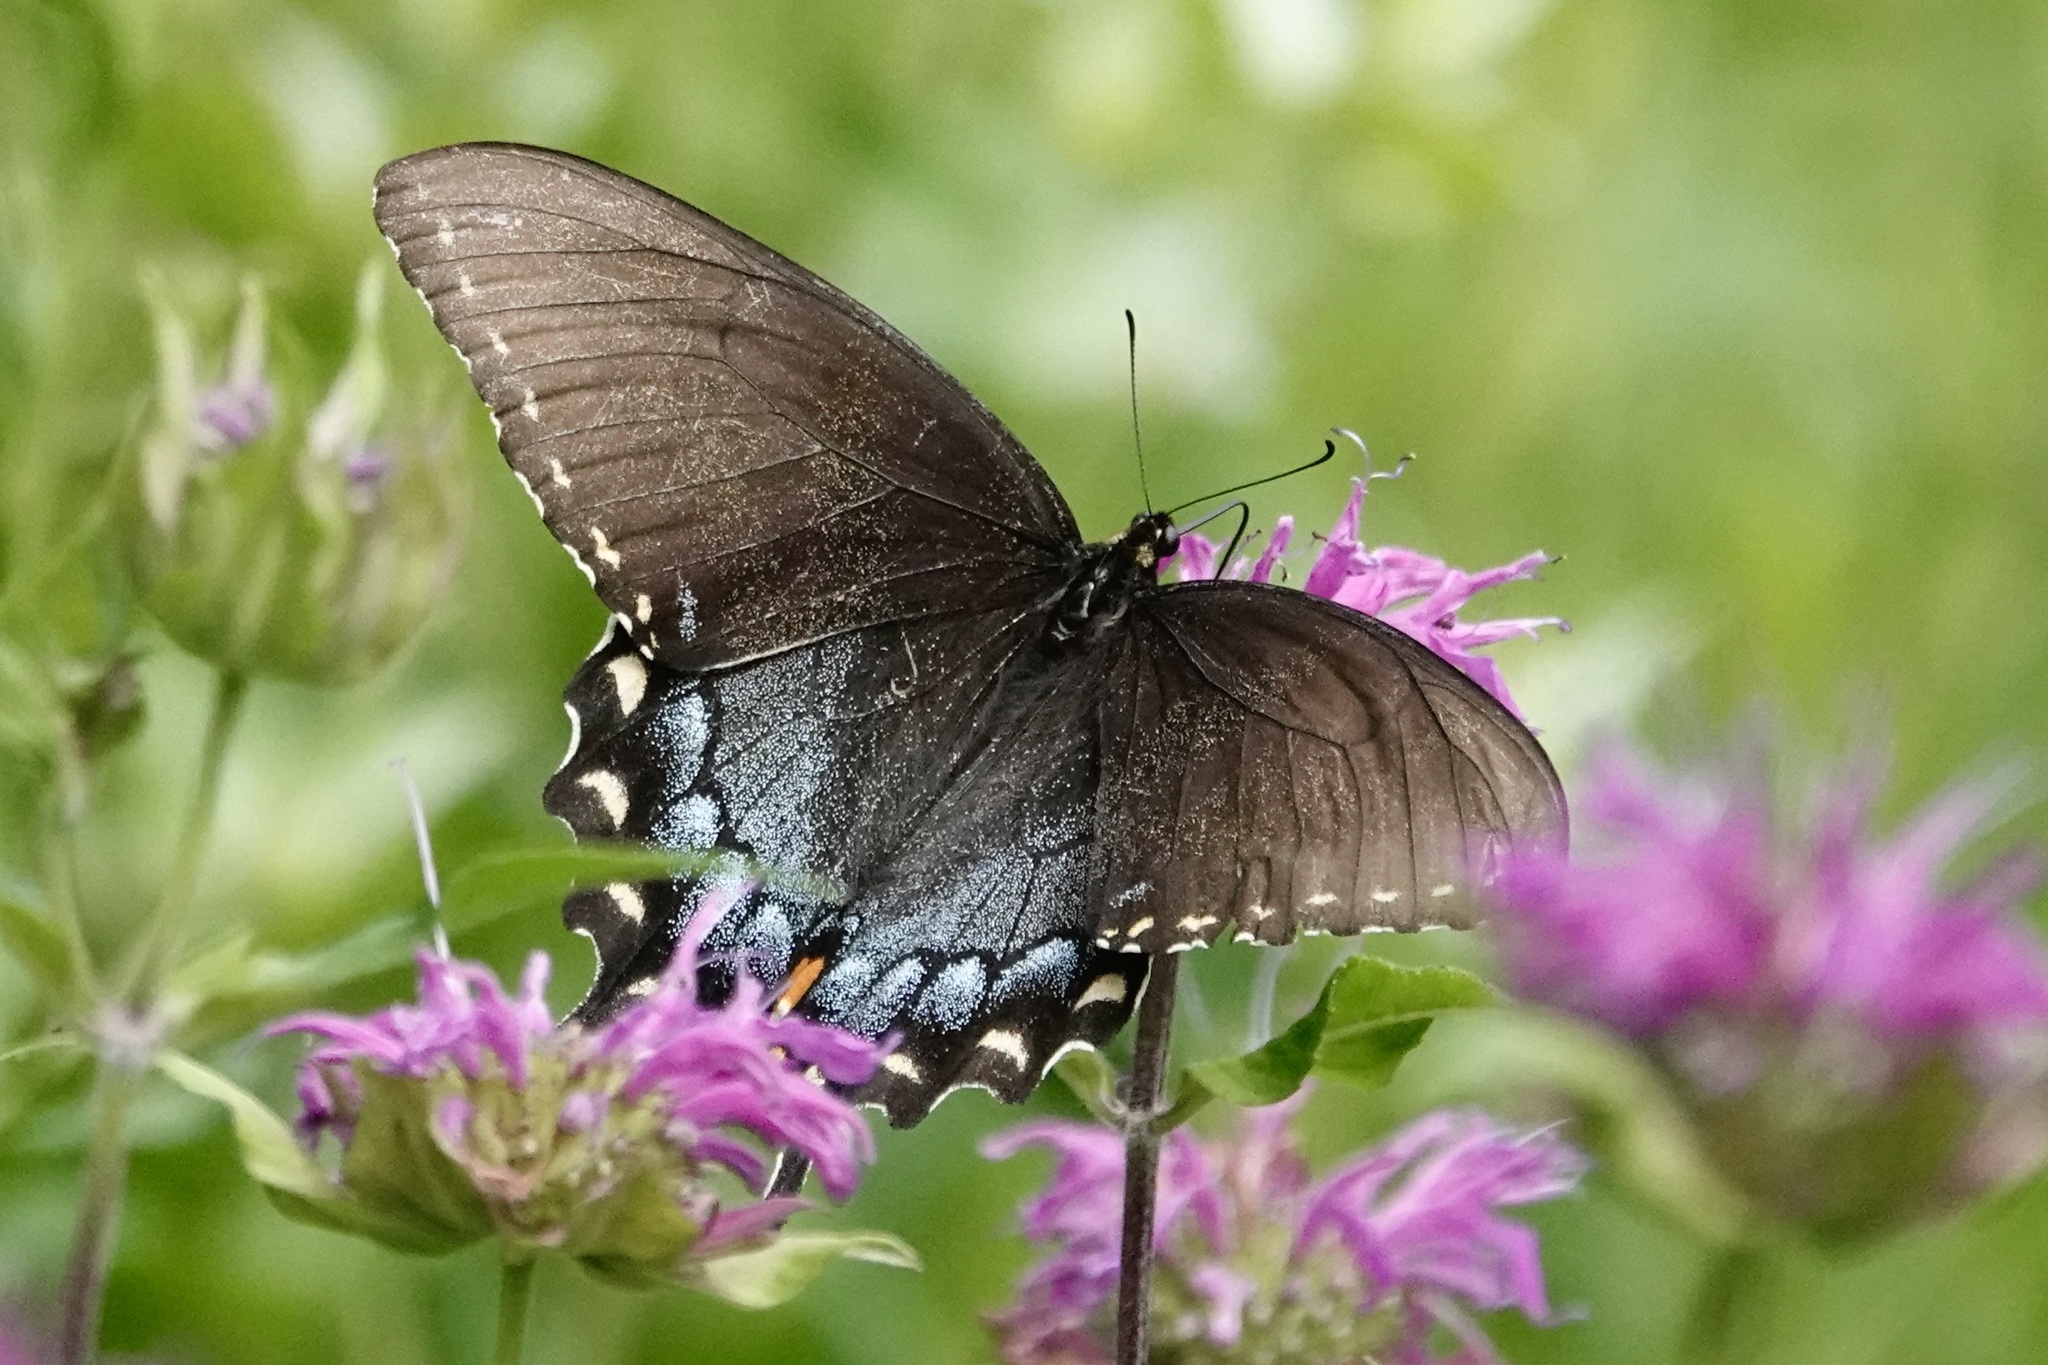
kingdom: Animalia
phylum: Arthropoda
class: Insecta
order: Lepidoptera
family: Papilionidae
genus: Papilio
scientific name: Papilio glaucus
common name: Tiger swallowtail
